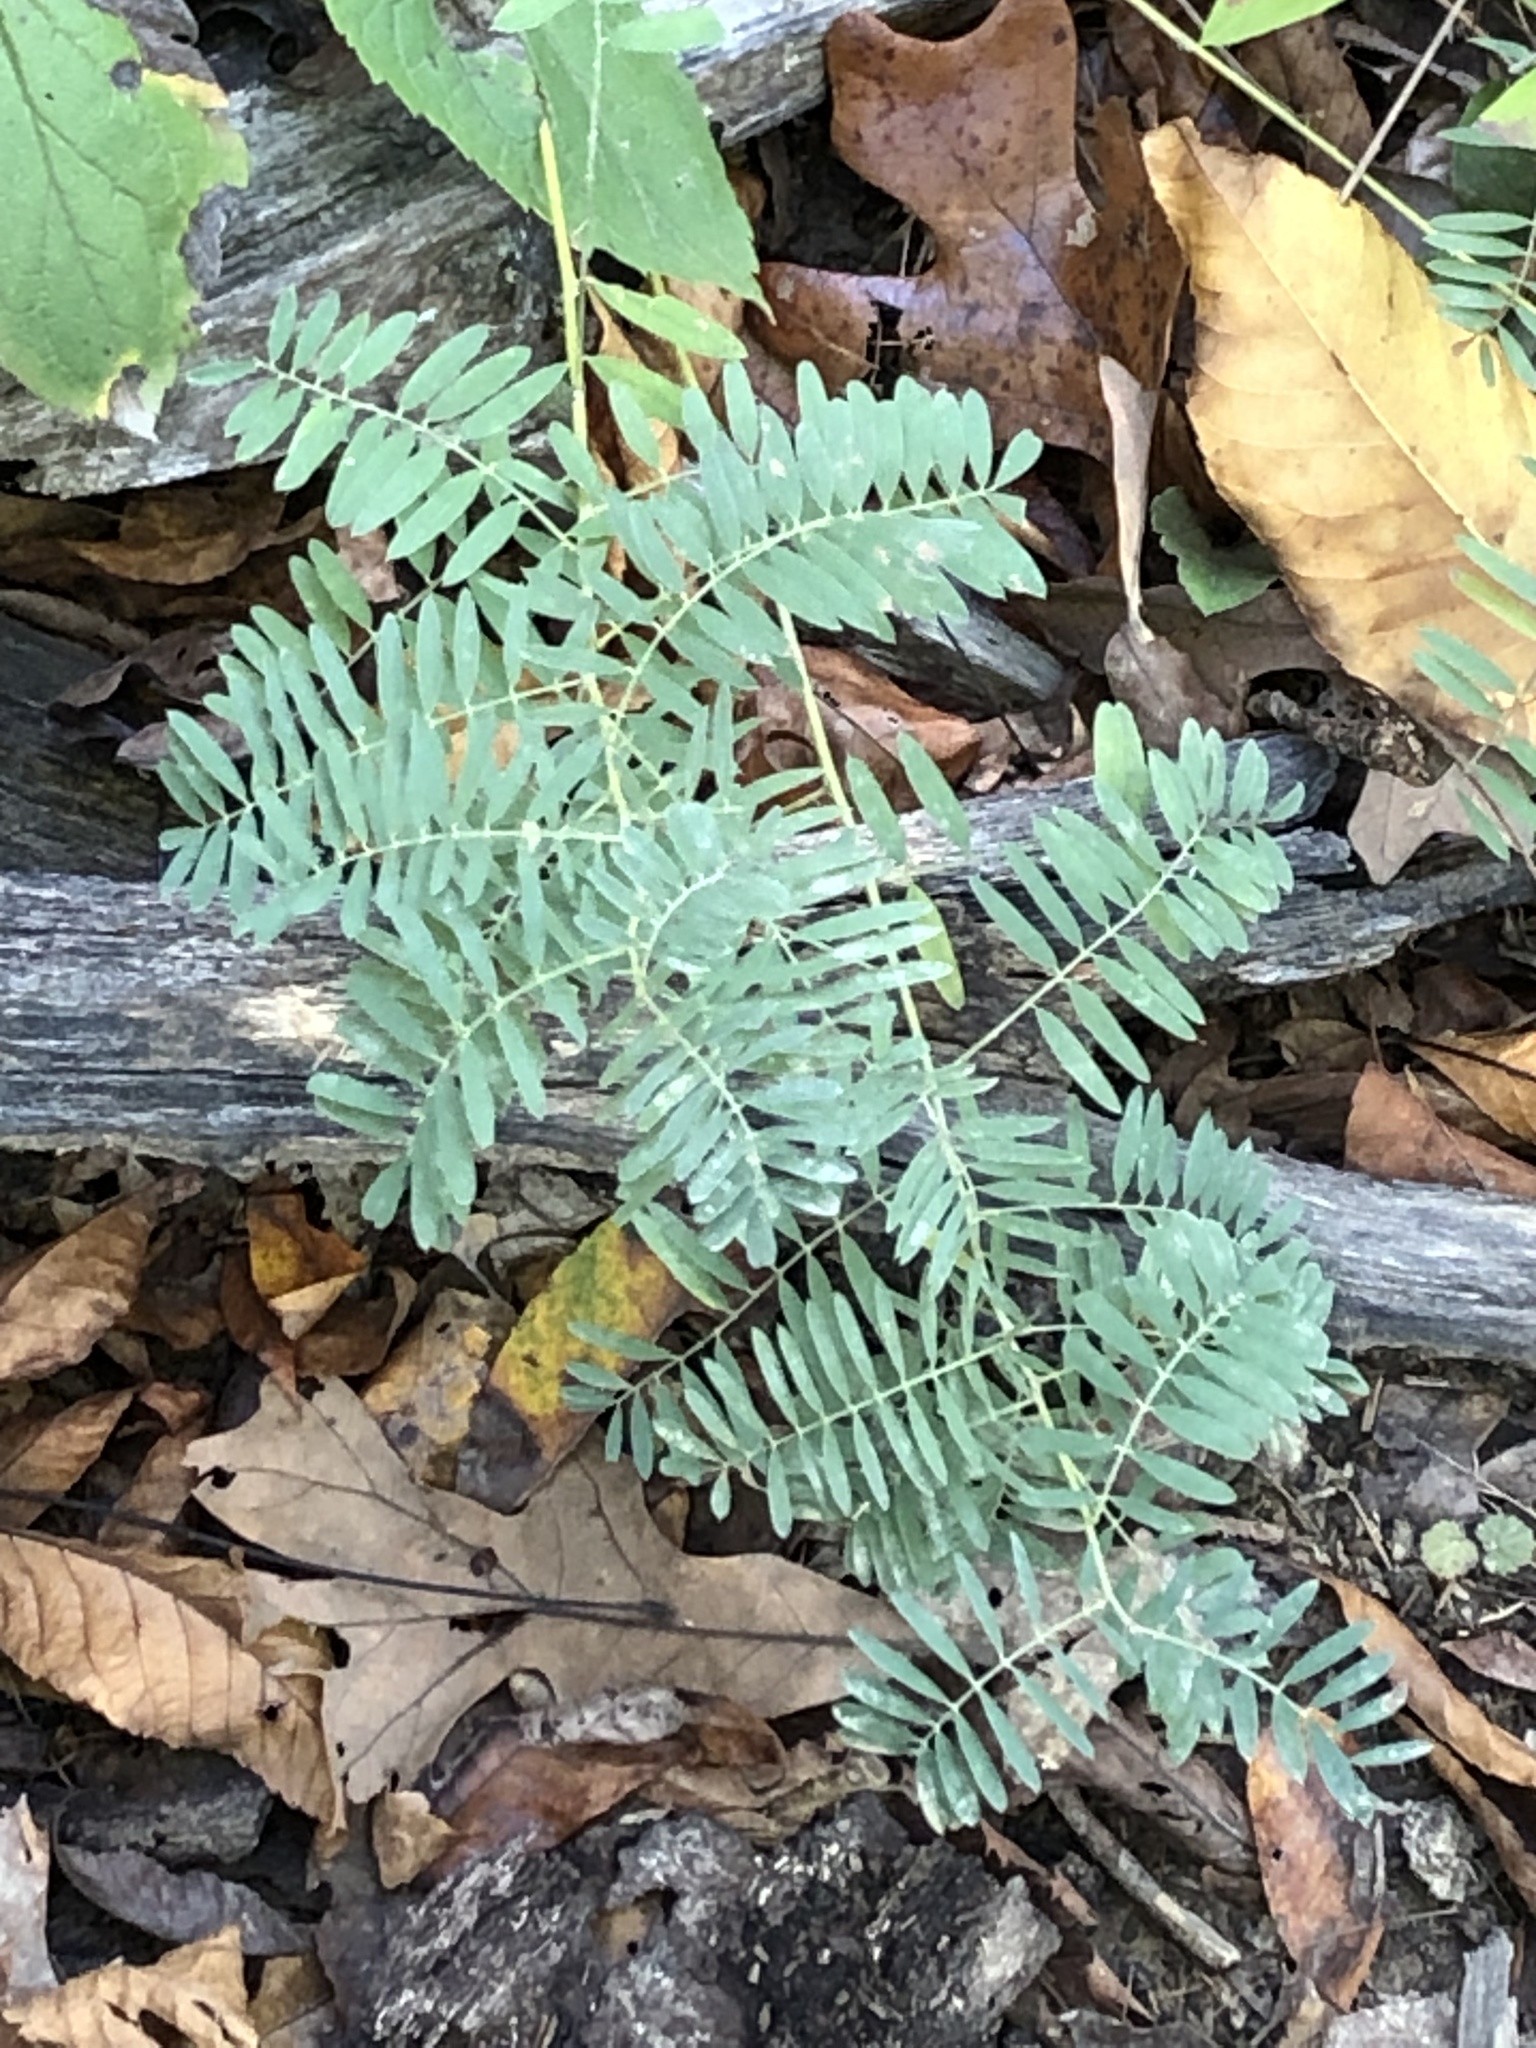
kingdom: Plantae
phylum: Tracheophyta
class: Magnoliopsida
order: Fabales
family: Fabaceae
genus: Tephrosia
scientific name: Tephrosia virginiana
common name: Rabbit-pea
